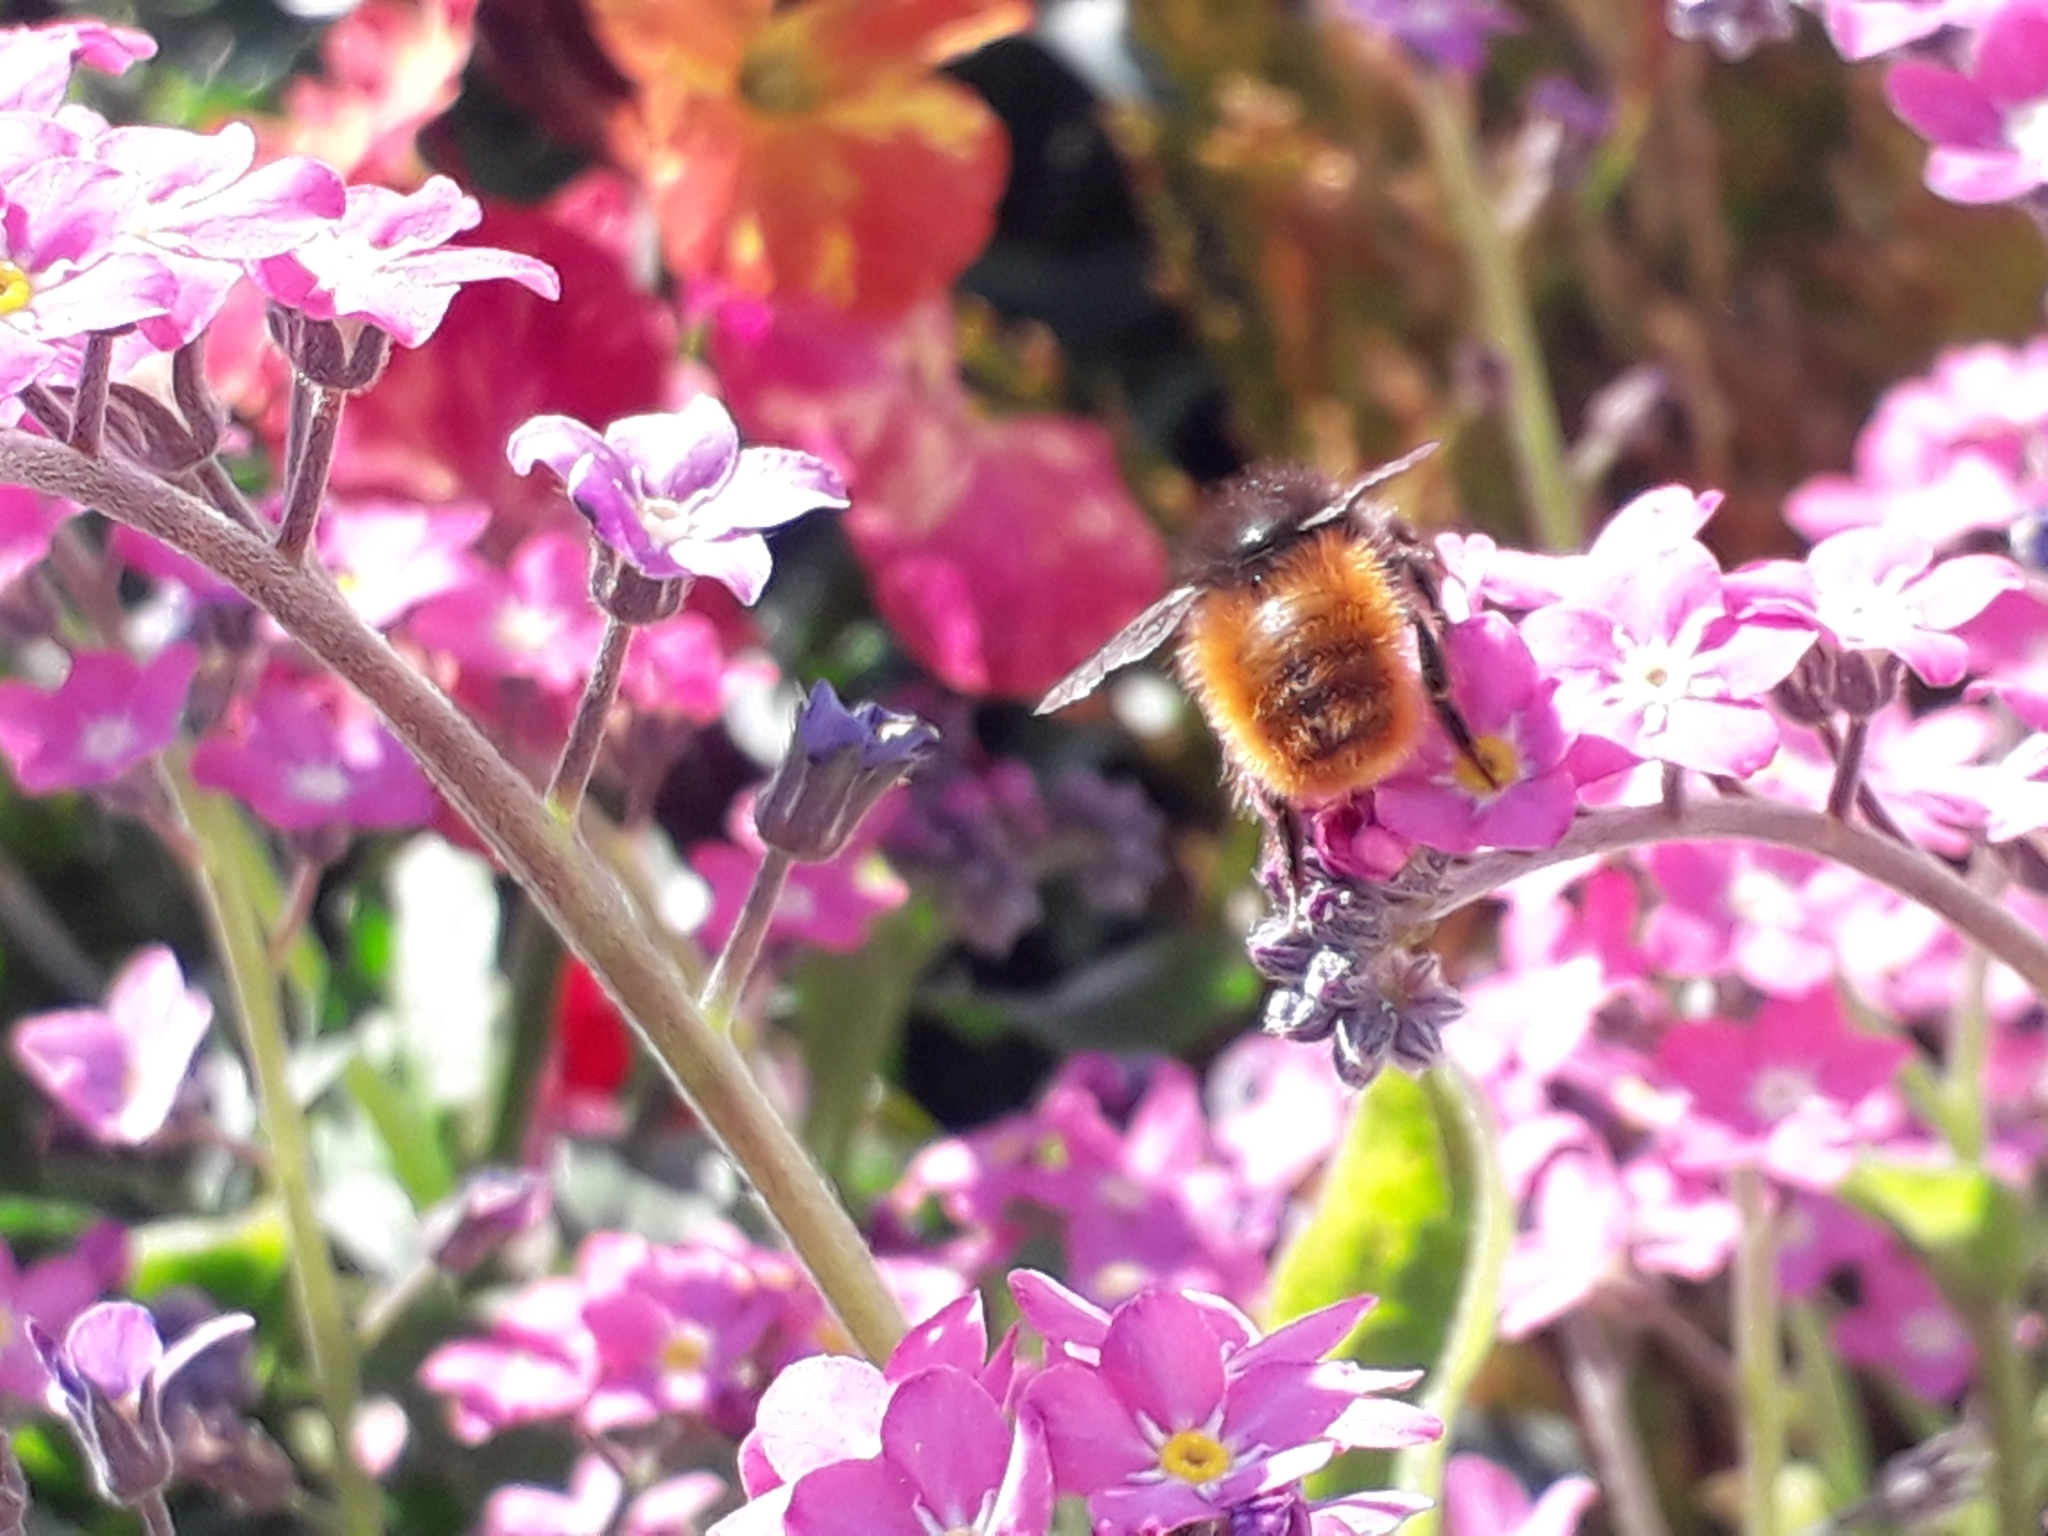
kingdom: Animalia
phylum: Arthropoda
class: Insecta
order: Hymenoptera
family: Megachilidae
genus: Osmia
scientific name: Osmia cornuta
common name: Mason bee
